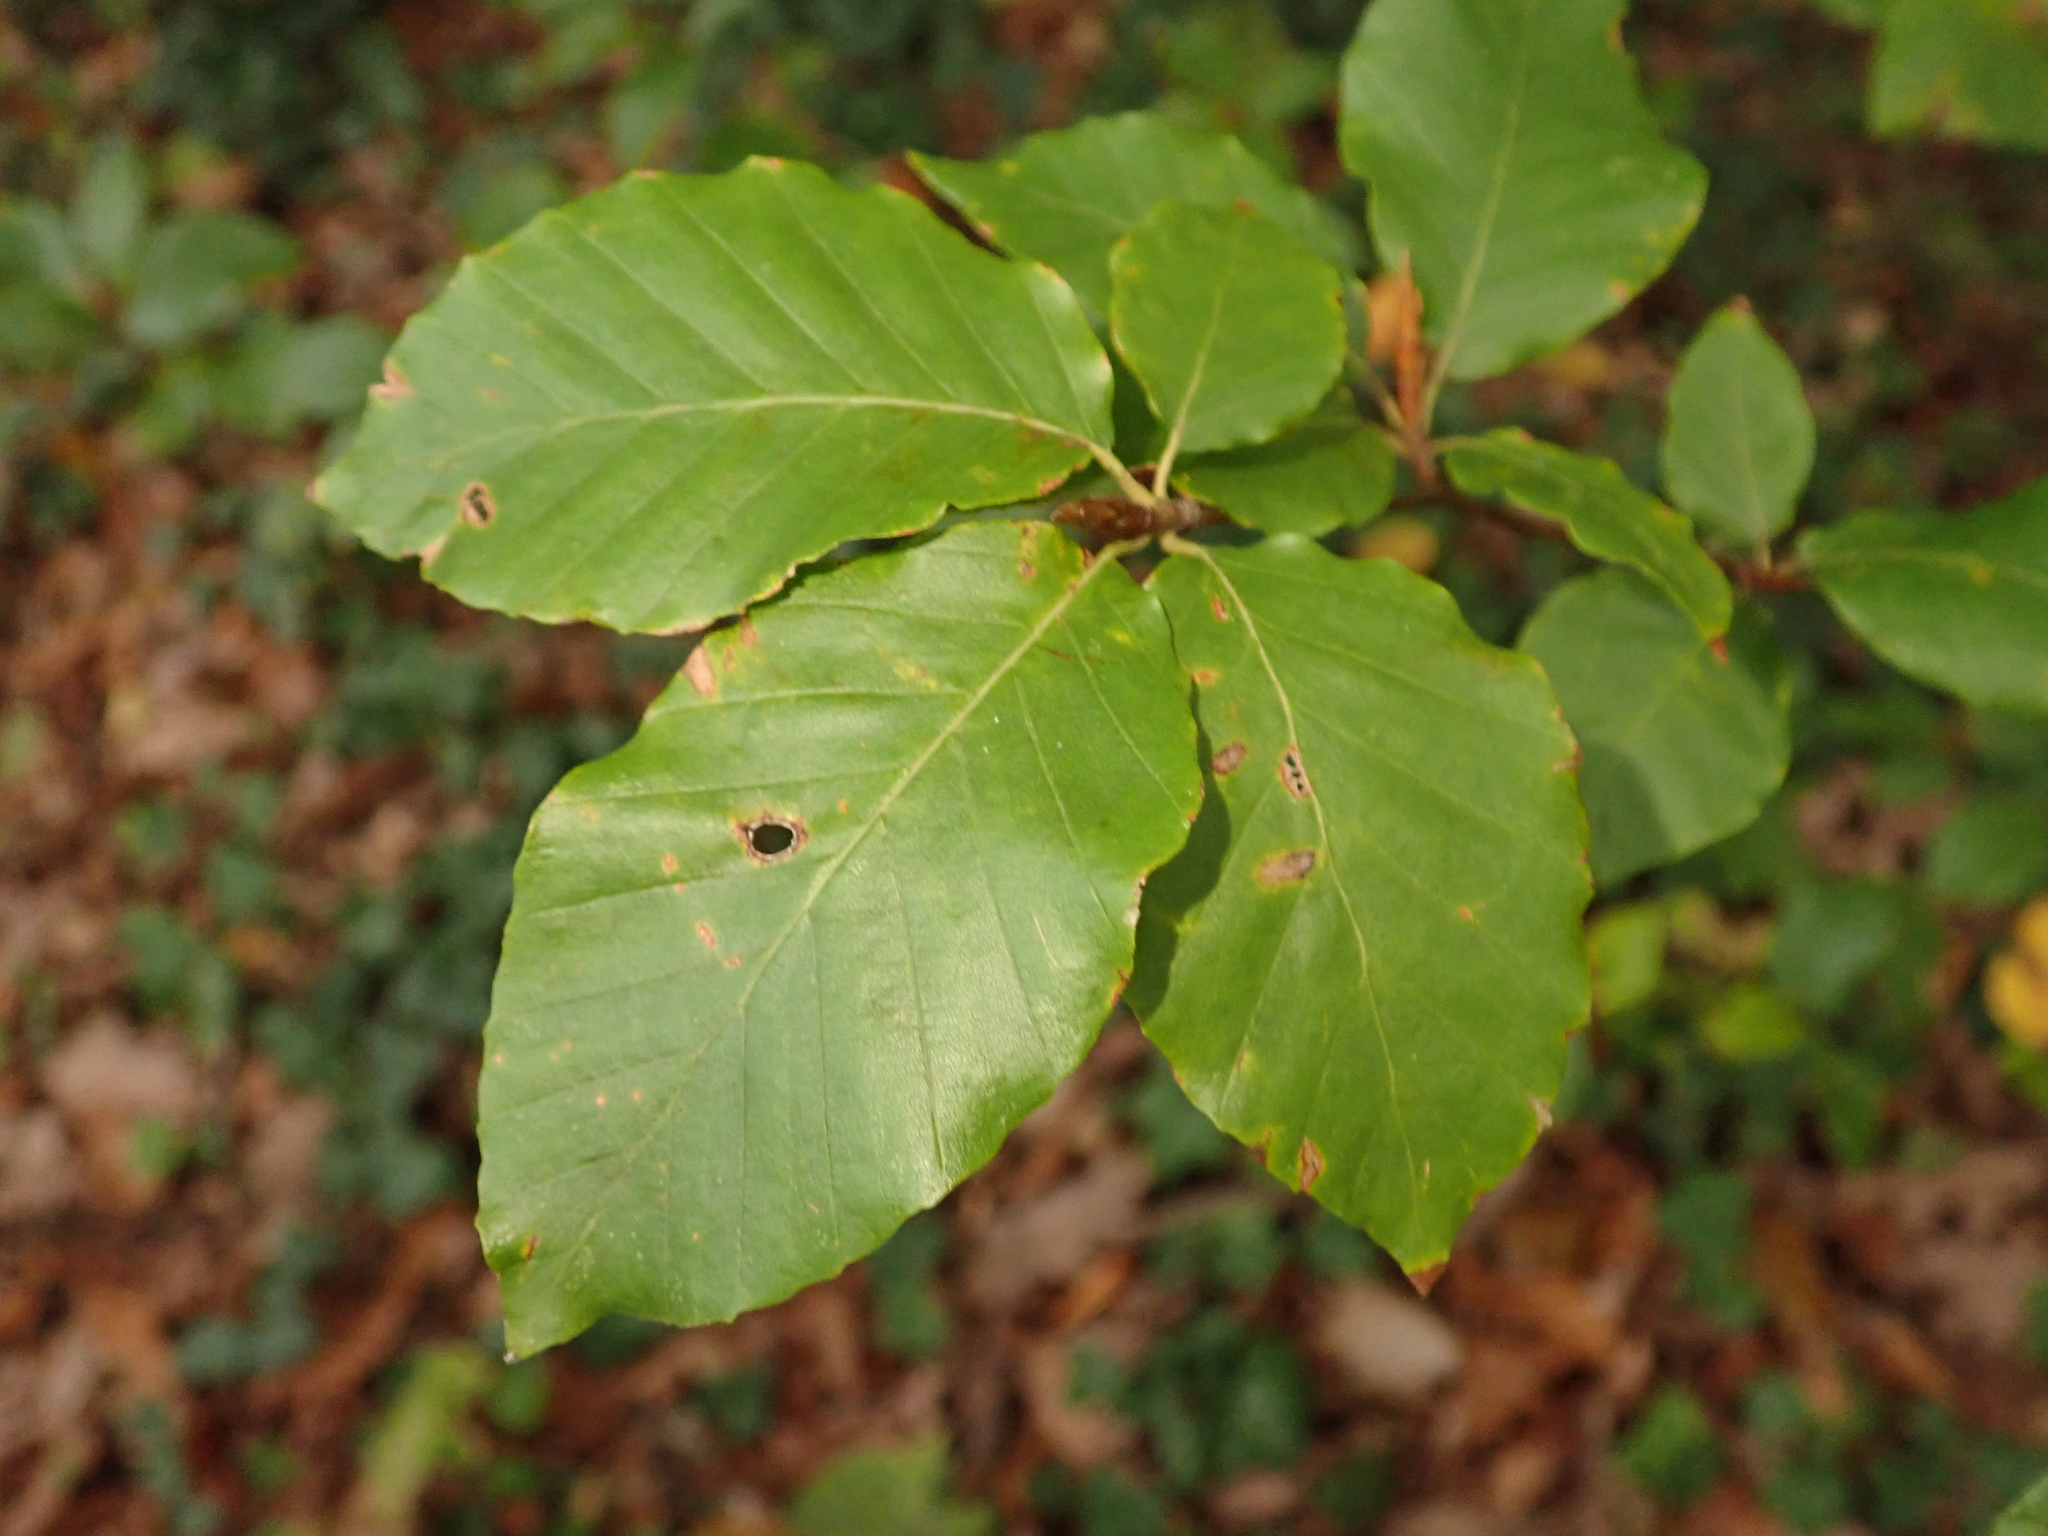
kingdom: Plantae
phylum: Tracheophyta
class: Magnoliopsida
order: Fagales
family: Fagaceae
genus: Fagus
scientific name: Fagus sylvatica
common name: Beech
